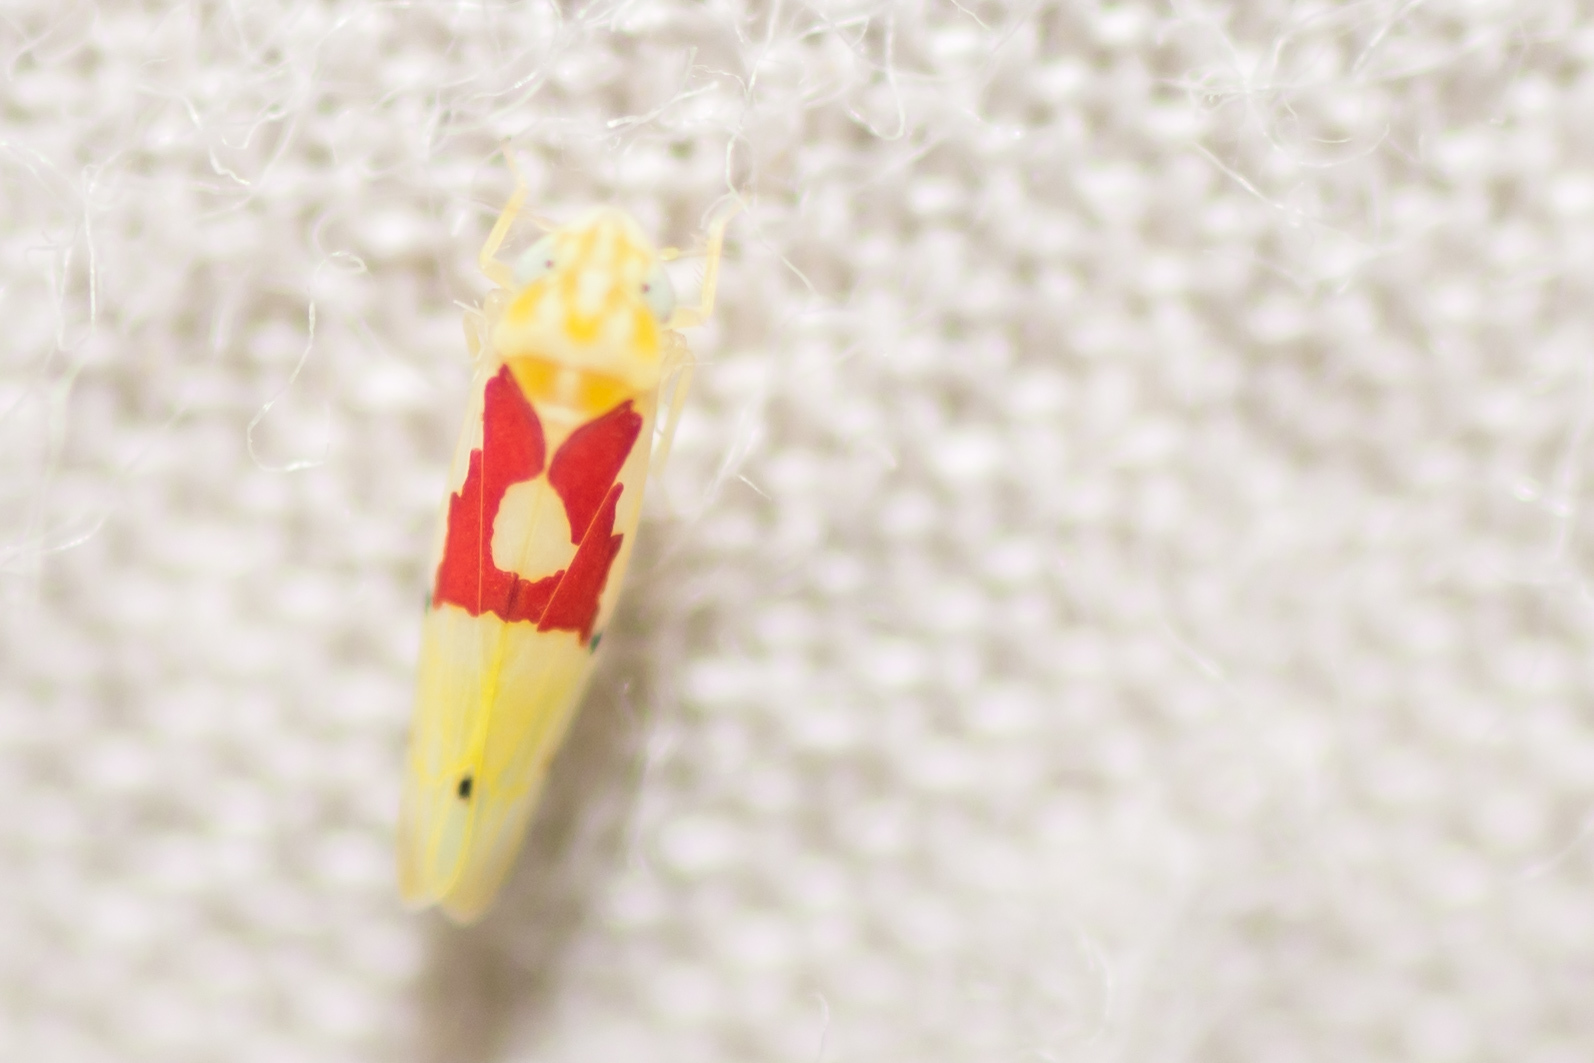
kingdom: Animalia
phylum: Arthropoda
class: Insecta
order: Hemiptera
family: Cicadellidae
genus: Eratoneura
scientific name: Eratoneura fulleri
